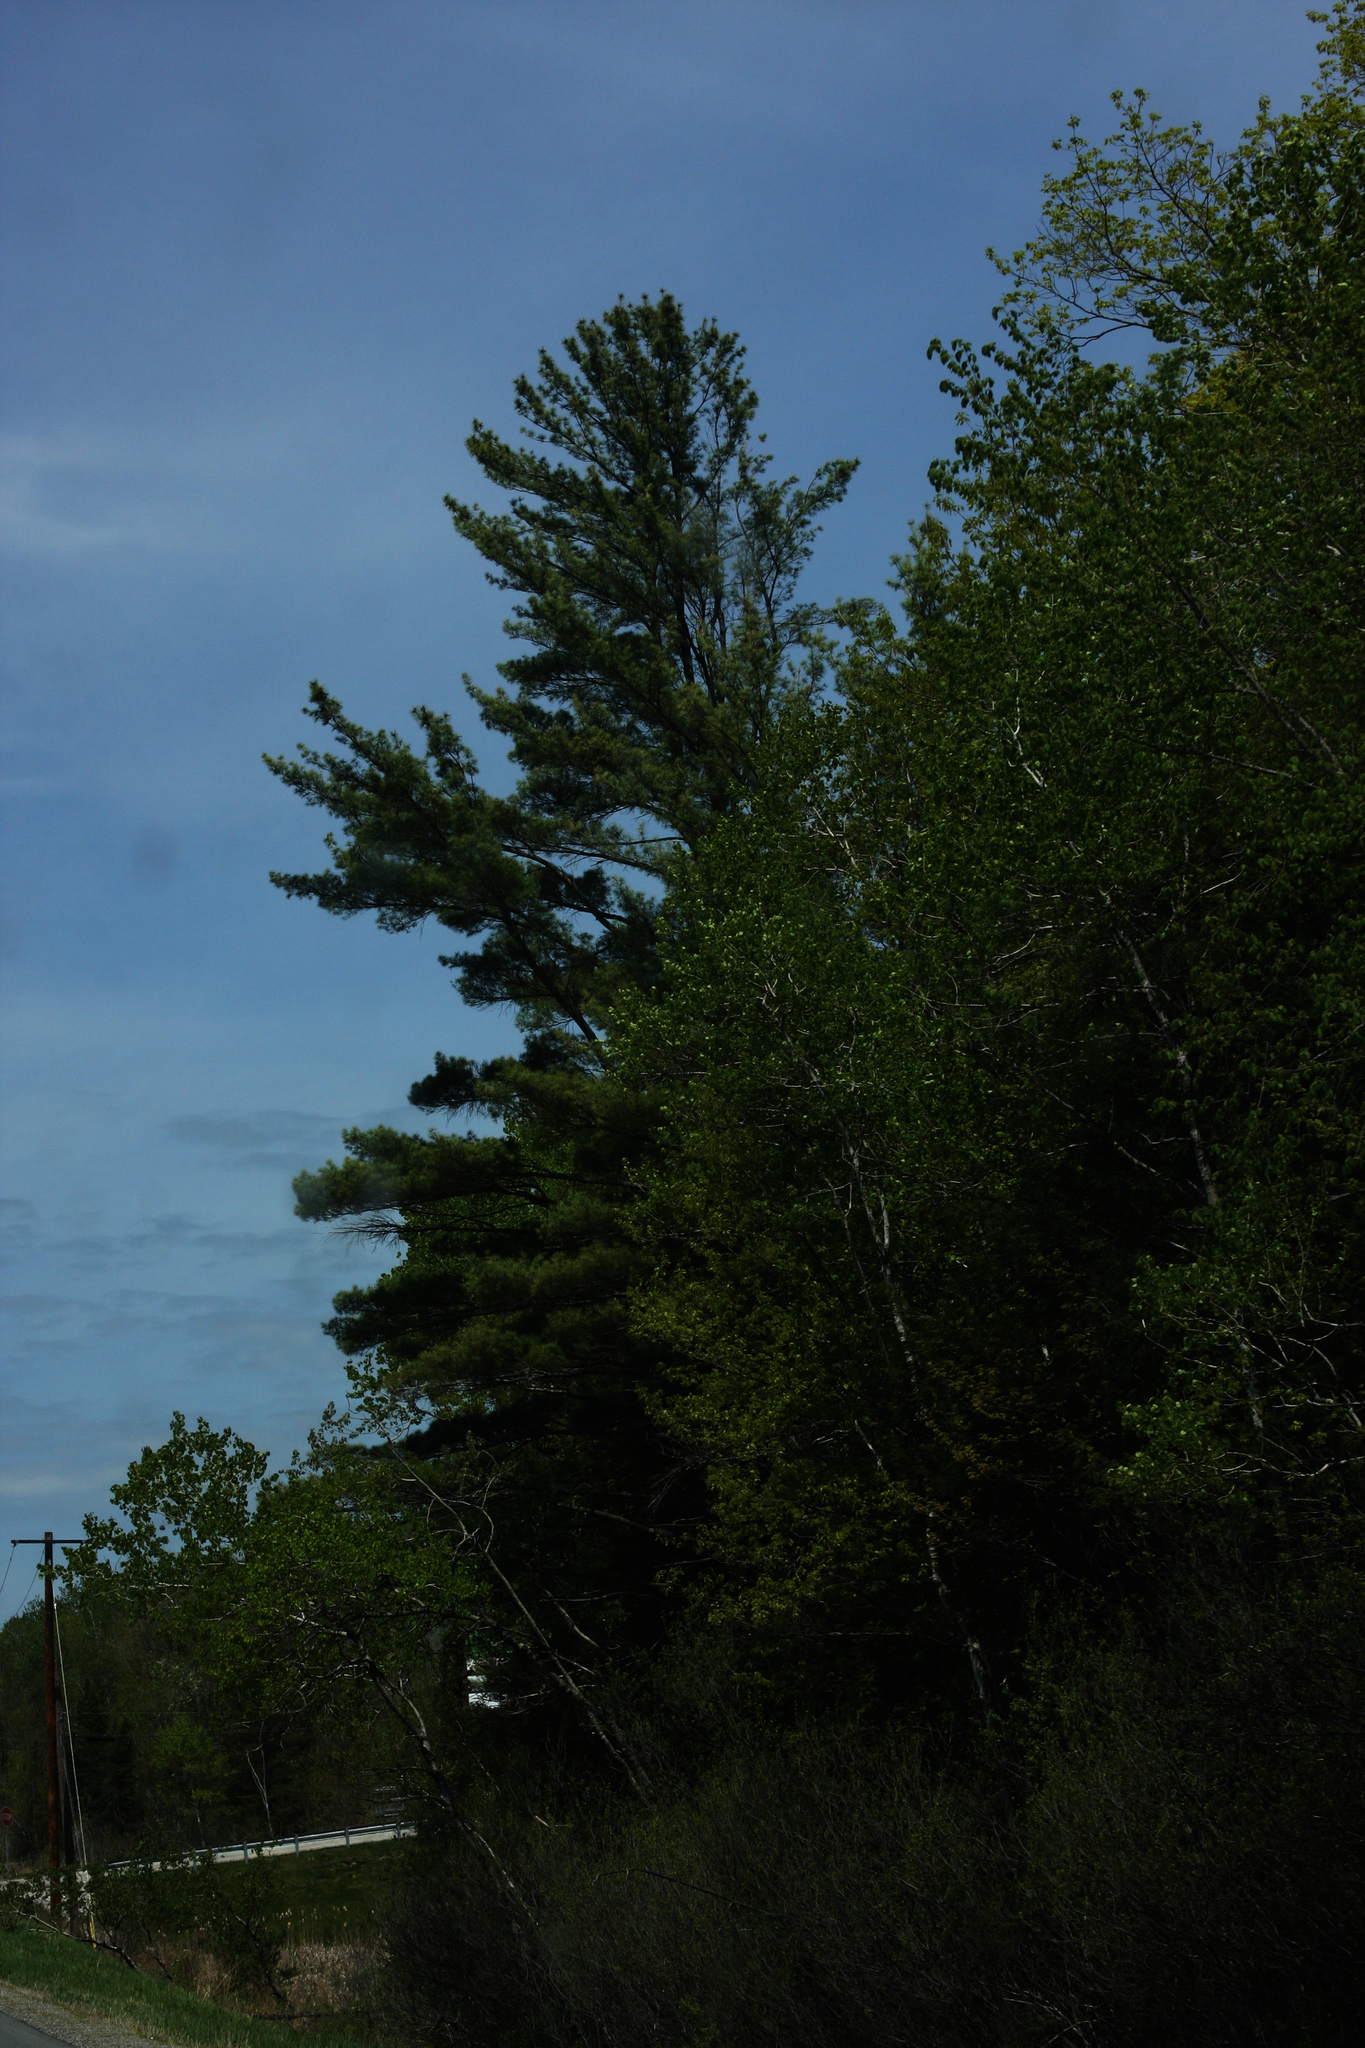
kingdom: Plantae
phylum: Tracheophyta
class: Pinopsida
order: Pinales
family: Pinaceae
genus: Pinus
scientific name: Pinus strobus
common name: Weymouth pine
